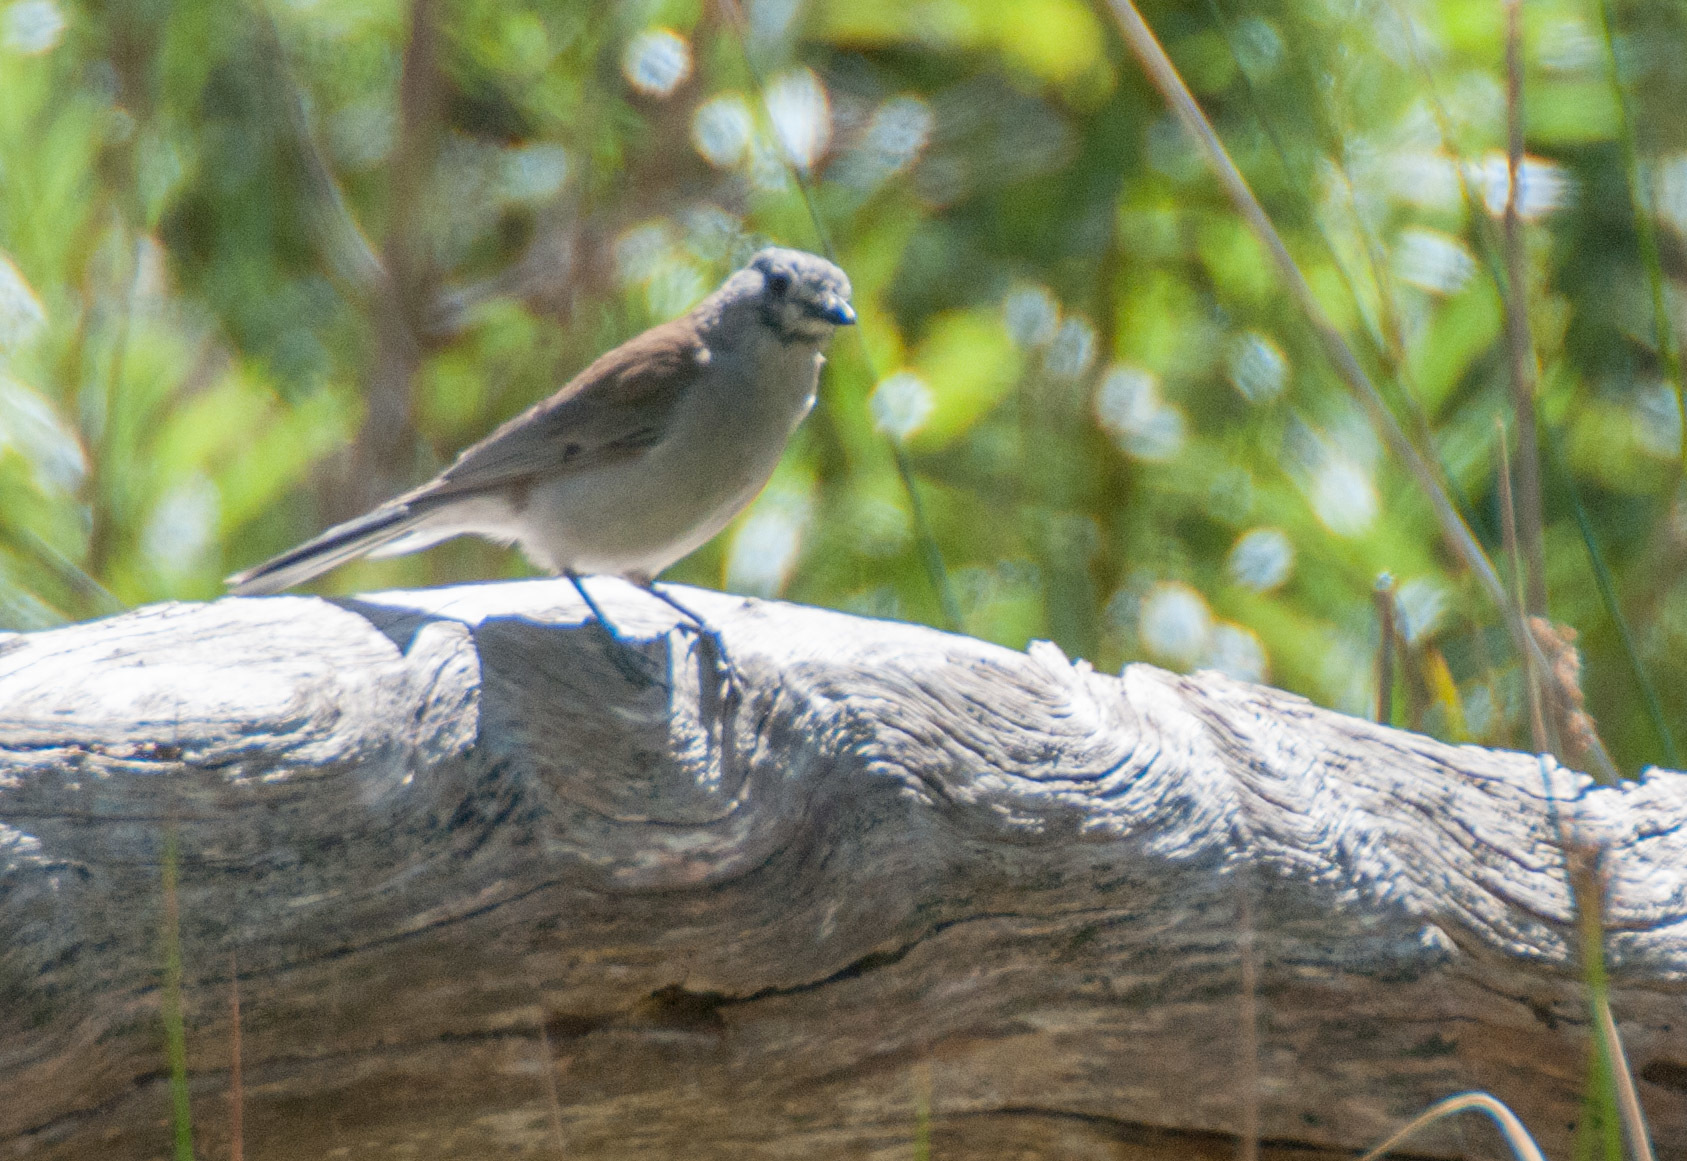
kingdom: Animalia
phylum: Chordata
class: Aves
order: Passeriformes
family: Pachycephalidae
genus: Colluricincla
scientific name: Colluricincla harmonica
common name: Grey shrikethrush
